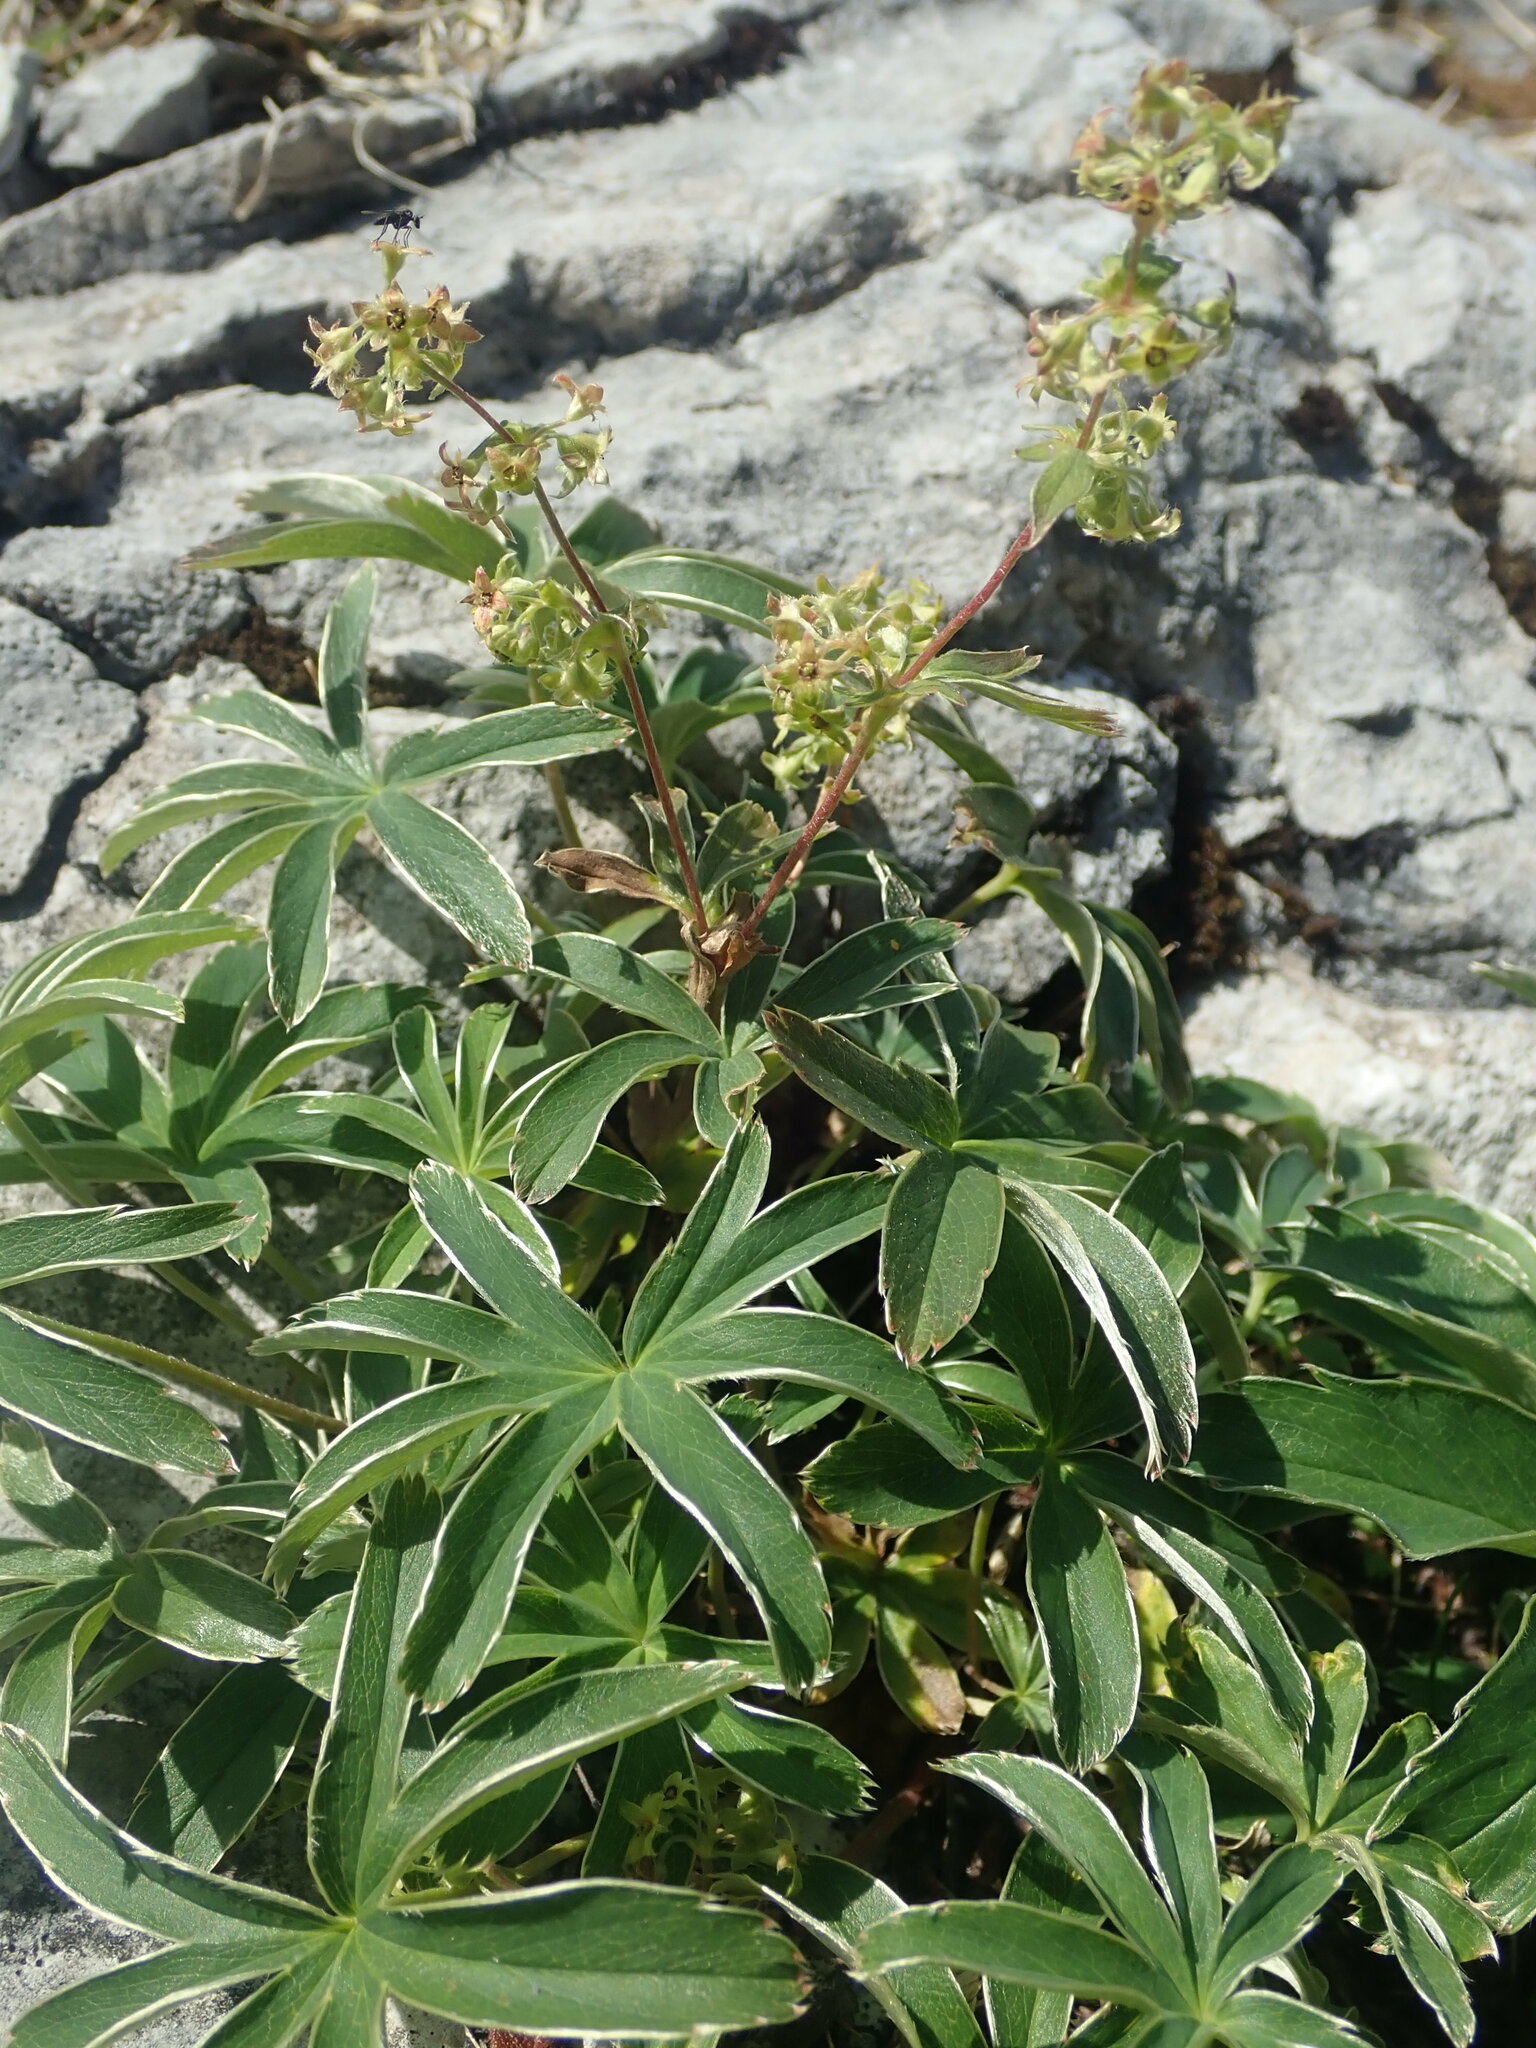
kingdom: Plantae
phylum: Tracheophyta
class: Magnoliopsida
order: Rosales
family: Rosaceae
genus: Alchemilla
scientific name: Alchemilla alpina
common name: Alpine lady's-mantle
